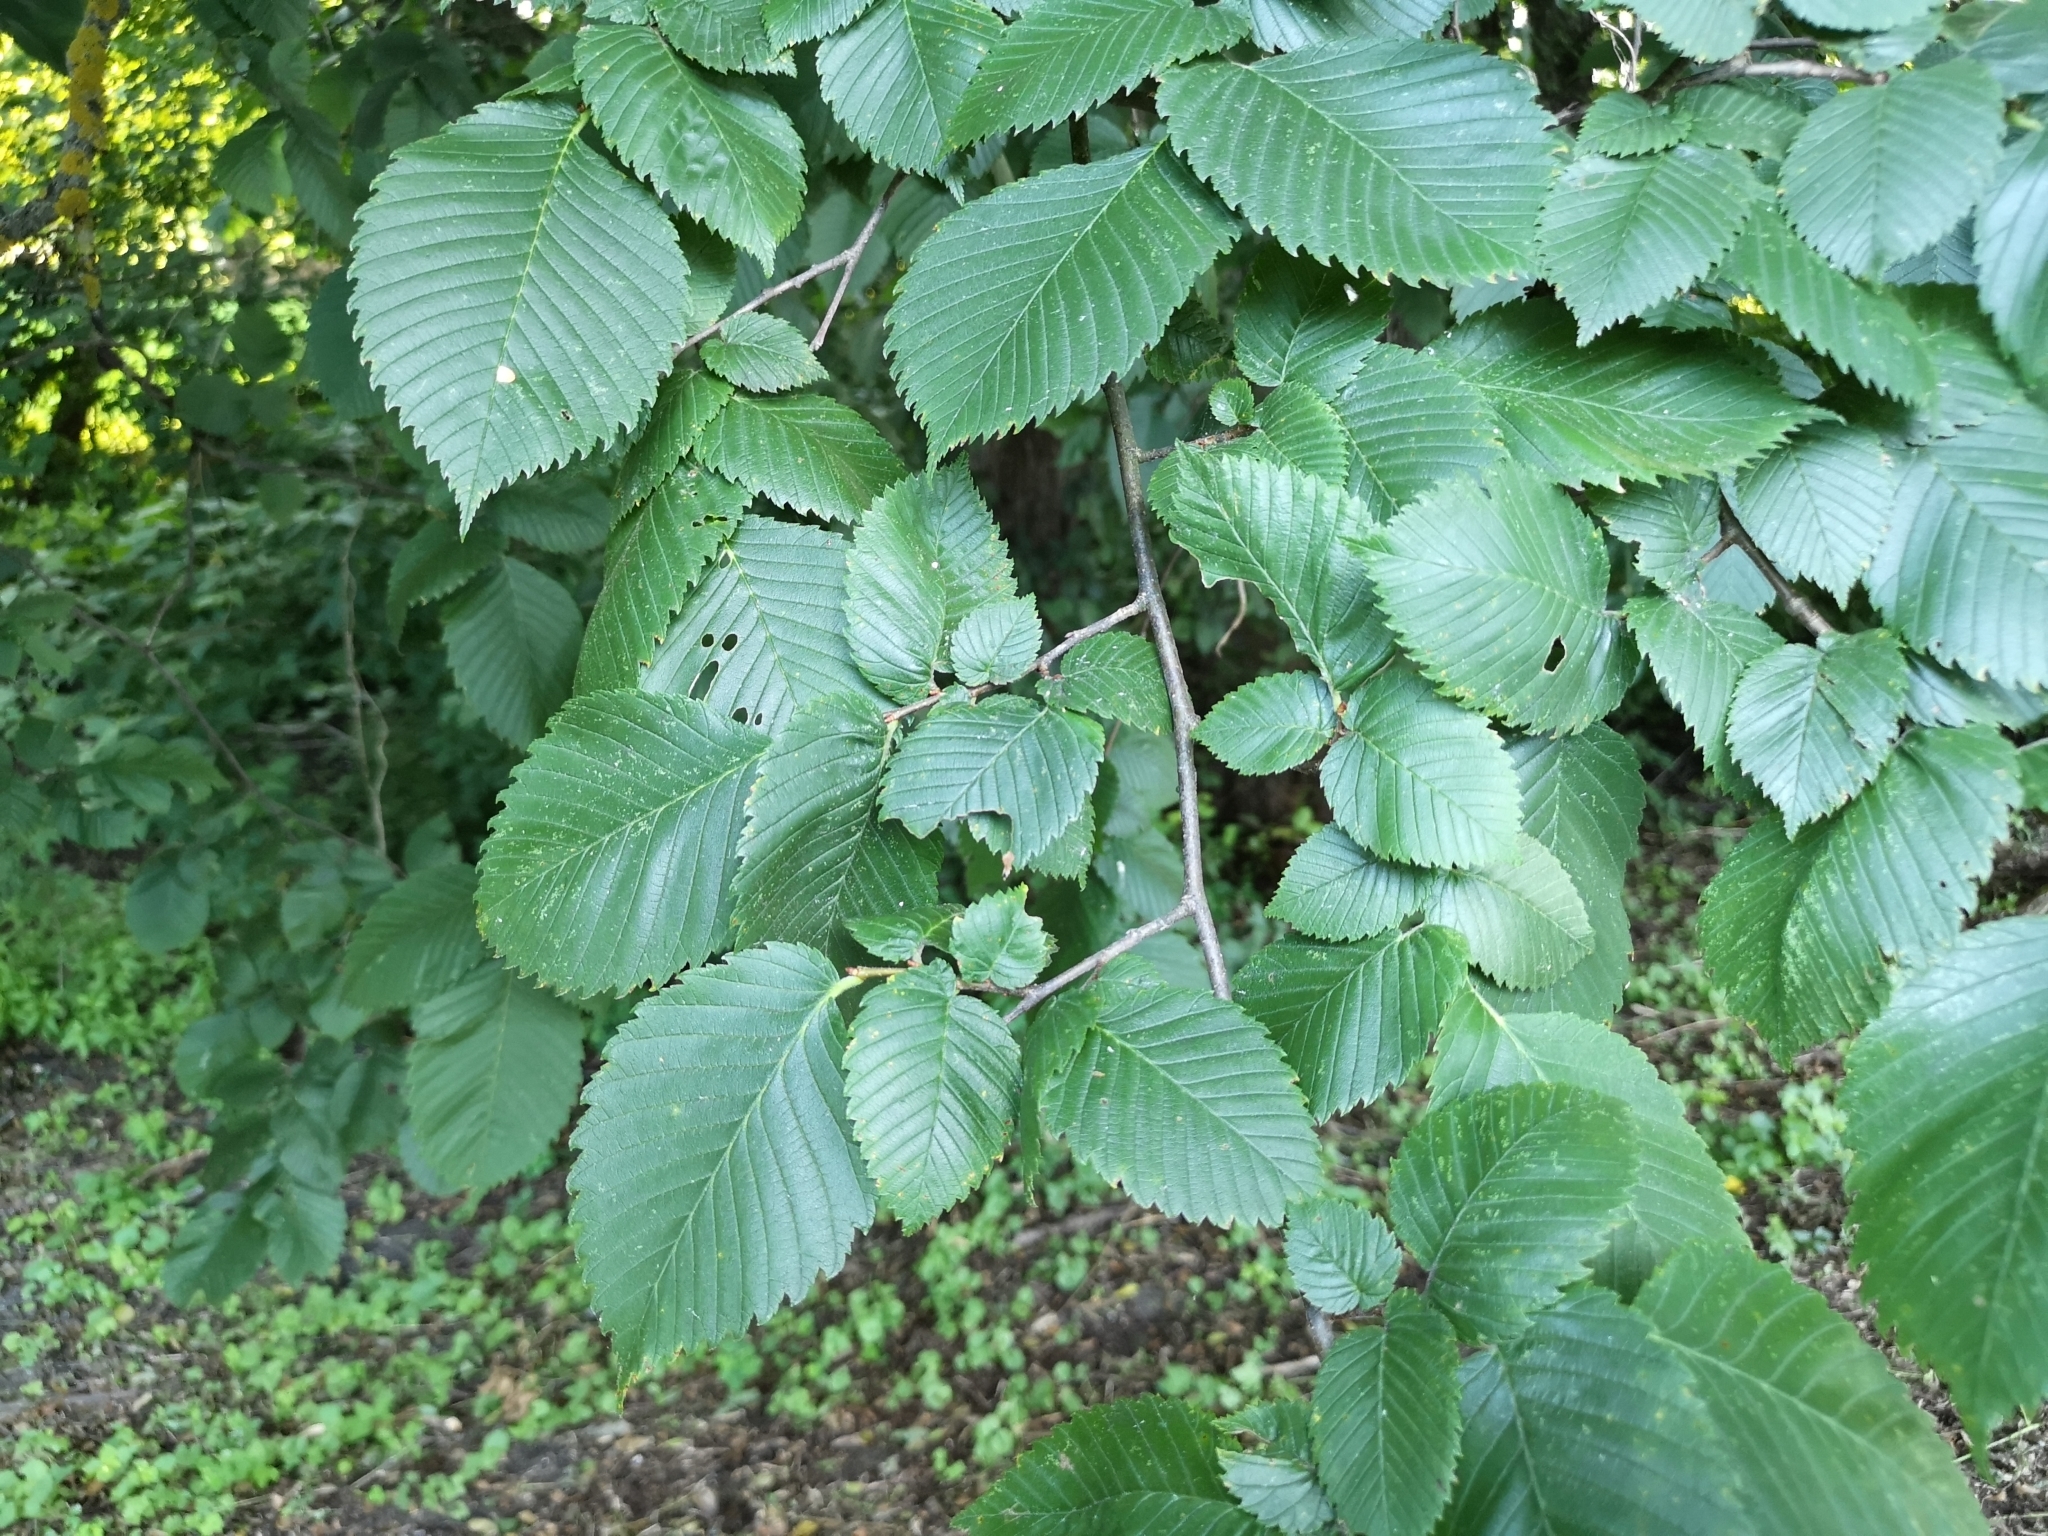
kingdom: Plantae
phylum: Tracheophyta
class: Magnoliopsida
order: Rosales
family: Ulmaceae
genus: Ulmus
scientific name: Ulmus laevis
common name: European white-elm
